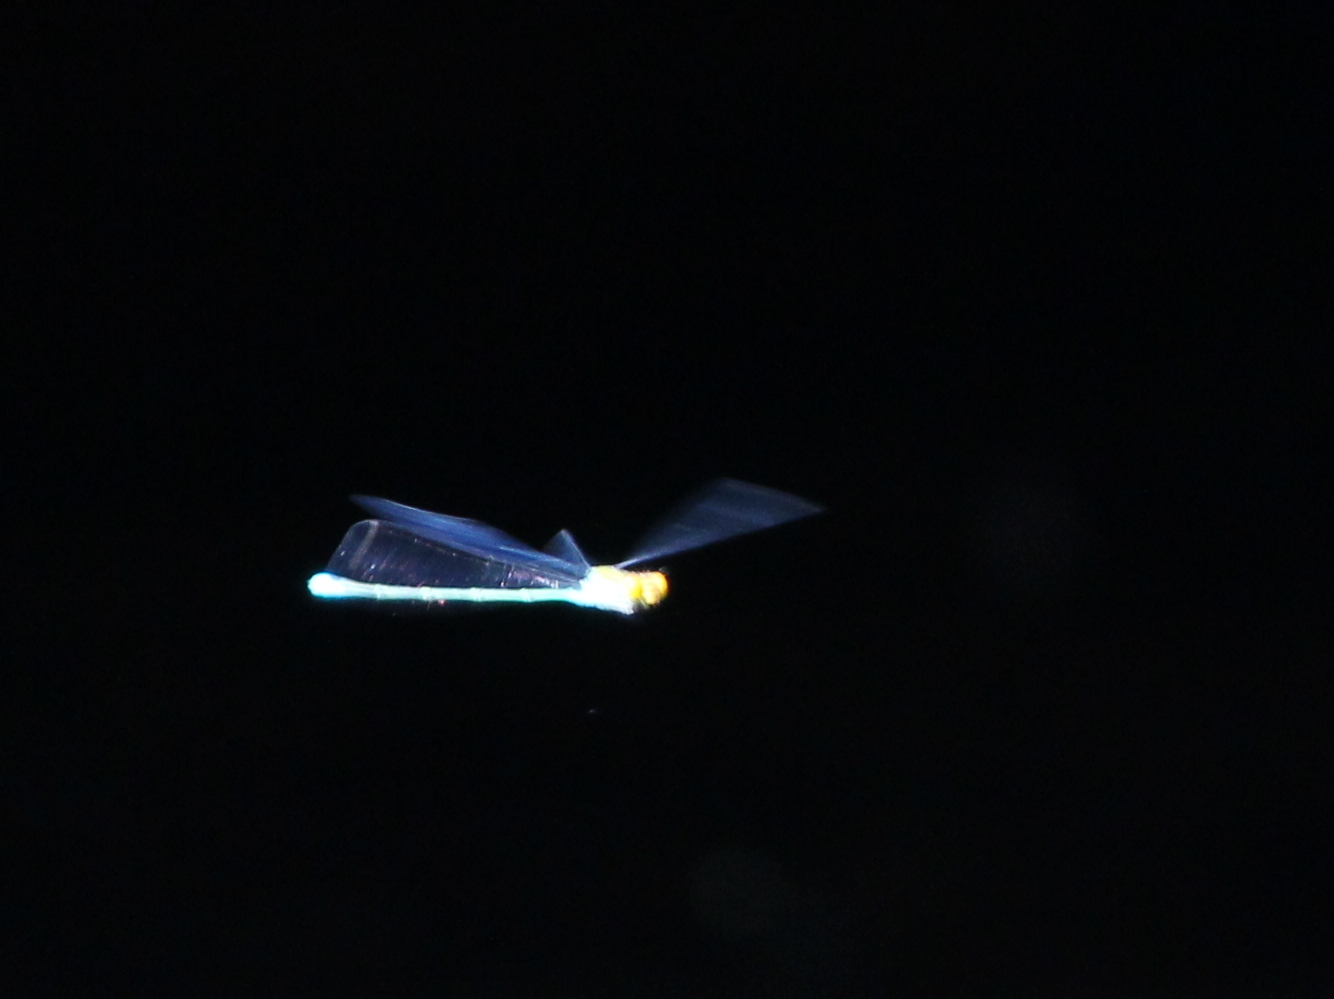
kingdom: Animalia
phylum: Arthropoda
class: Insecta
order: Odonata
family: Coenagrionidae
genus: Pseudagrion
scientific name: Pseudagrion rubriceps
